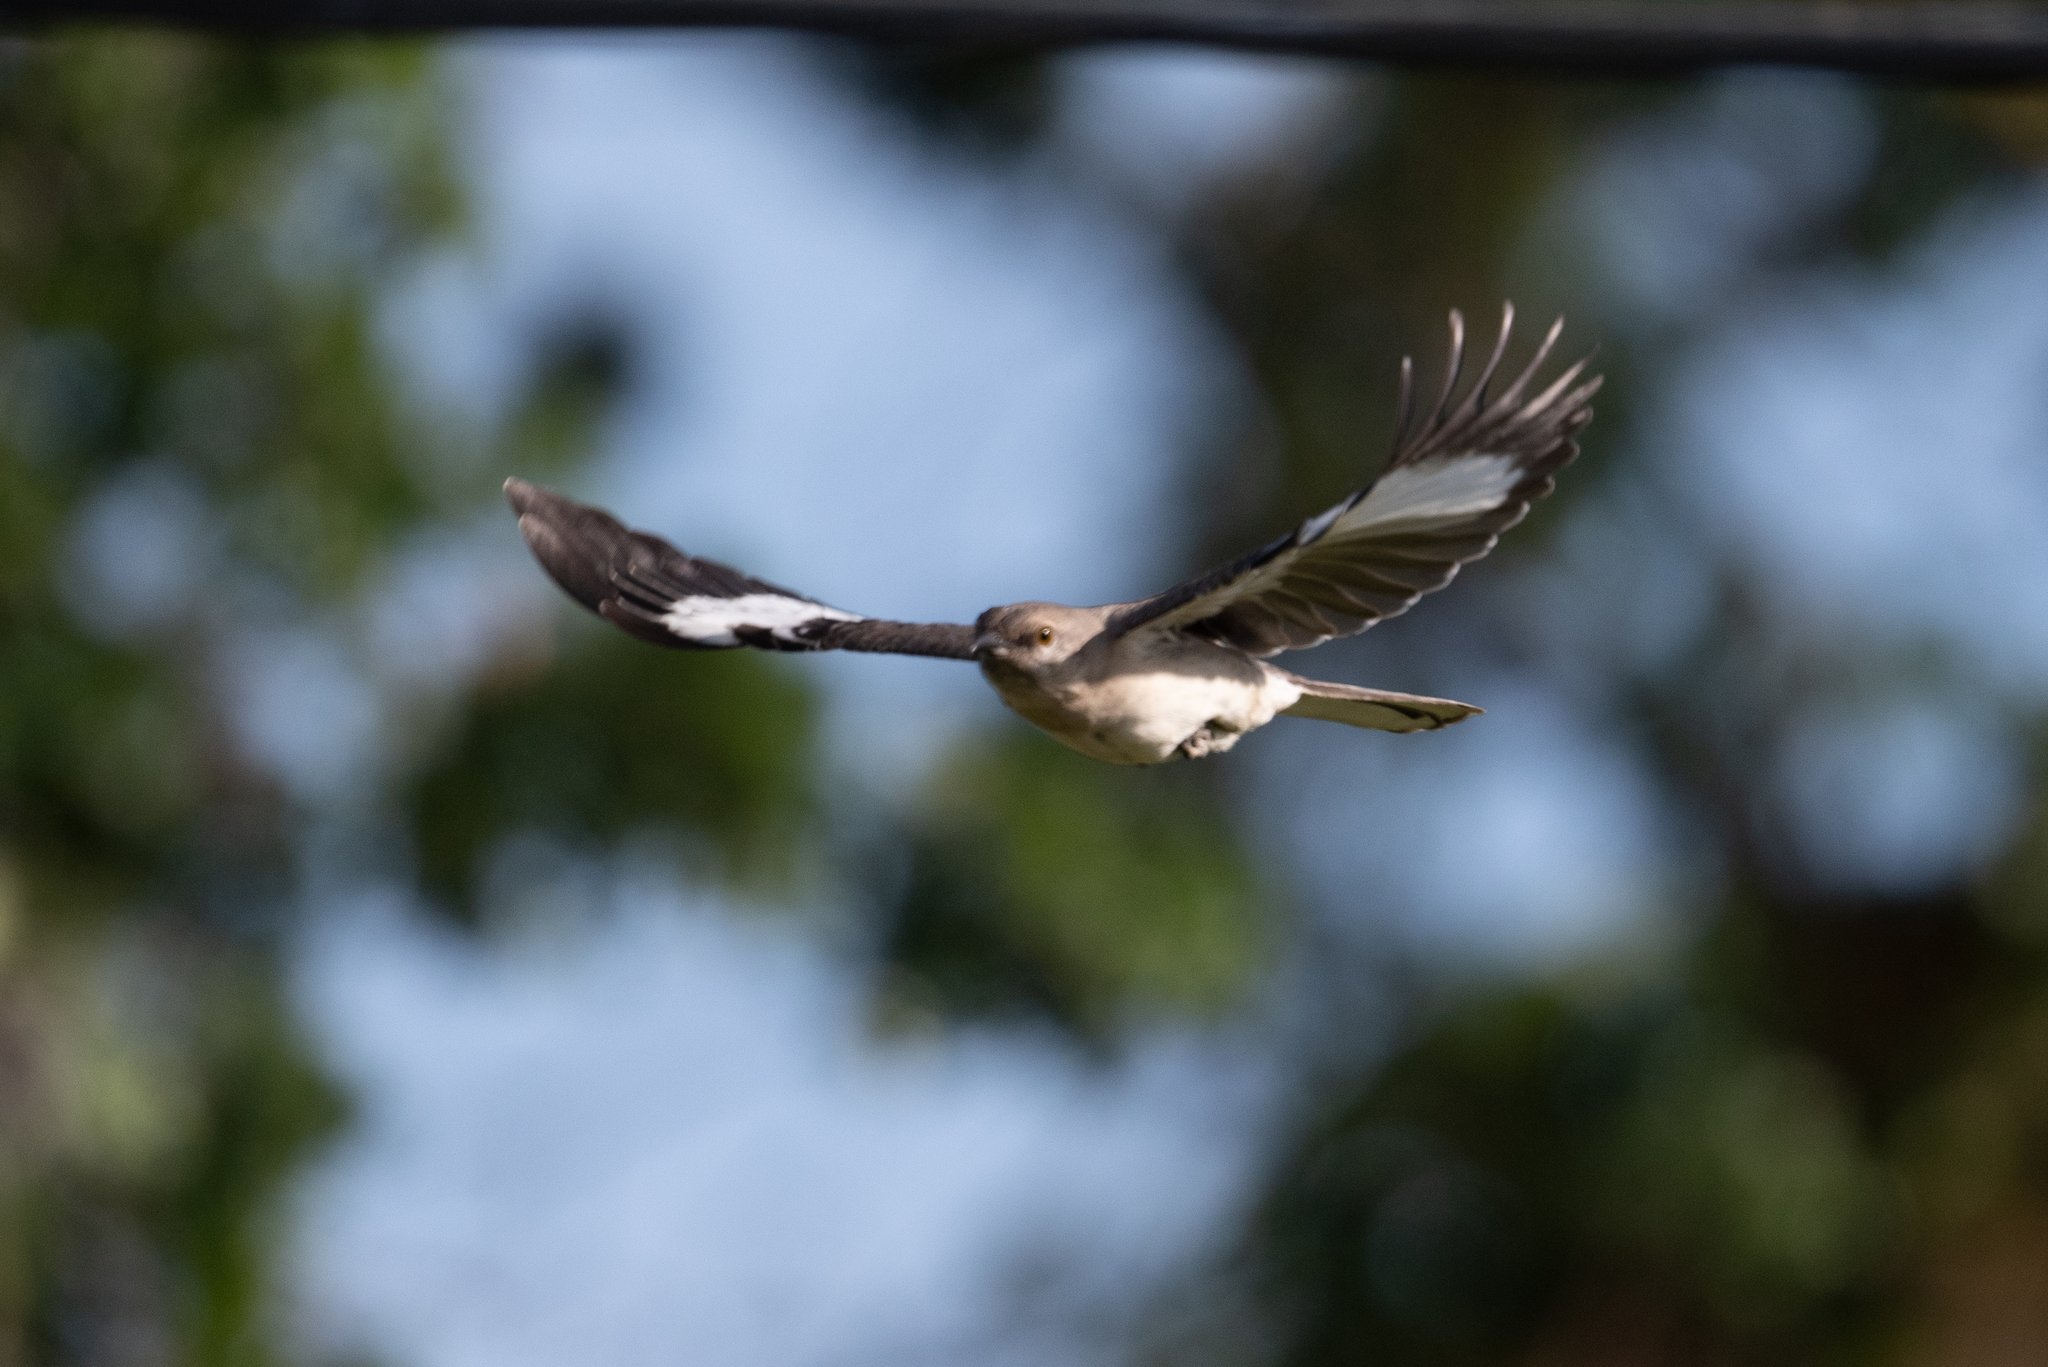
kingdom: Animalia
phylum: Chordata
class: Aves
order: Passeriformes
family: Mimidae
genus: Mimus
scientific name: Mimus polyglottos
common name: Northern mockingbird
